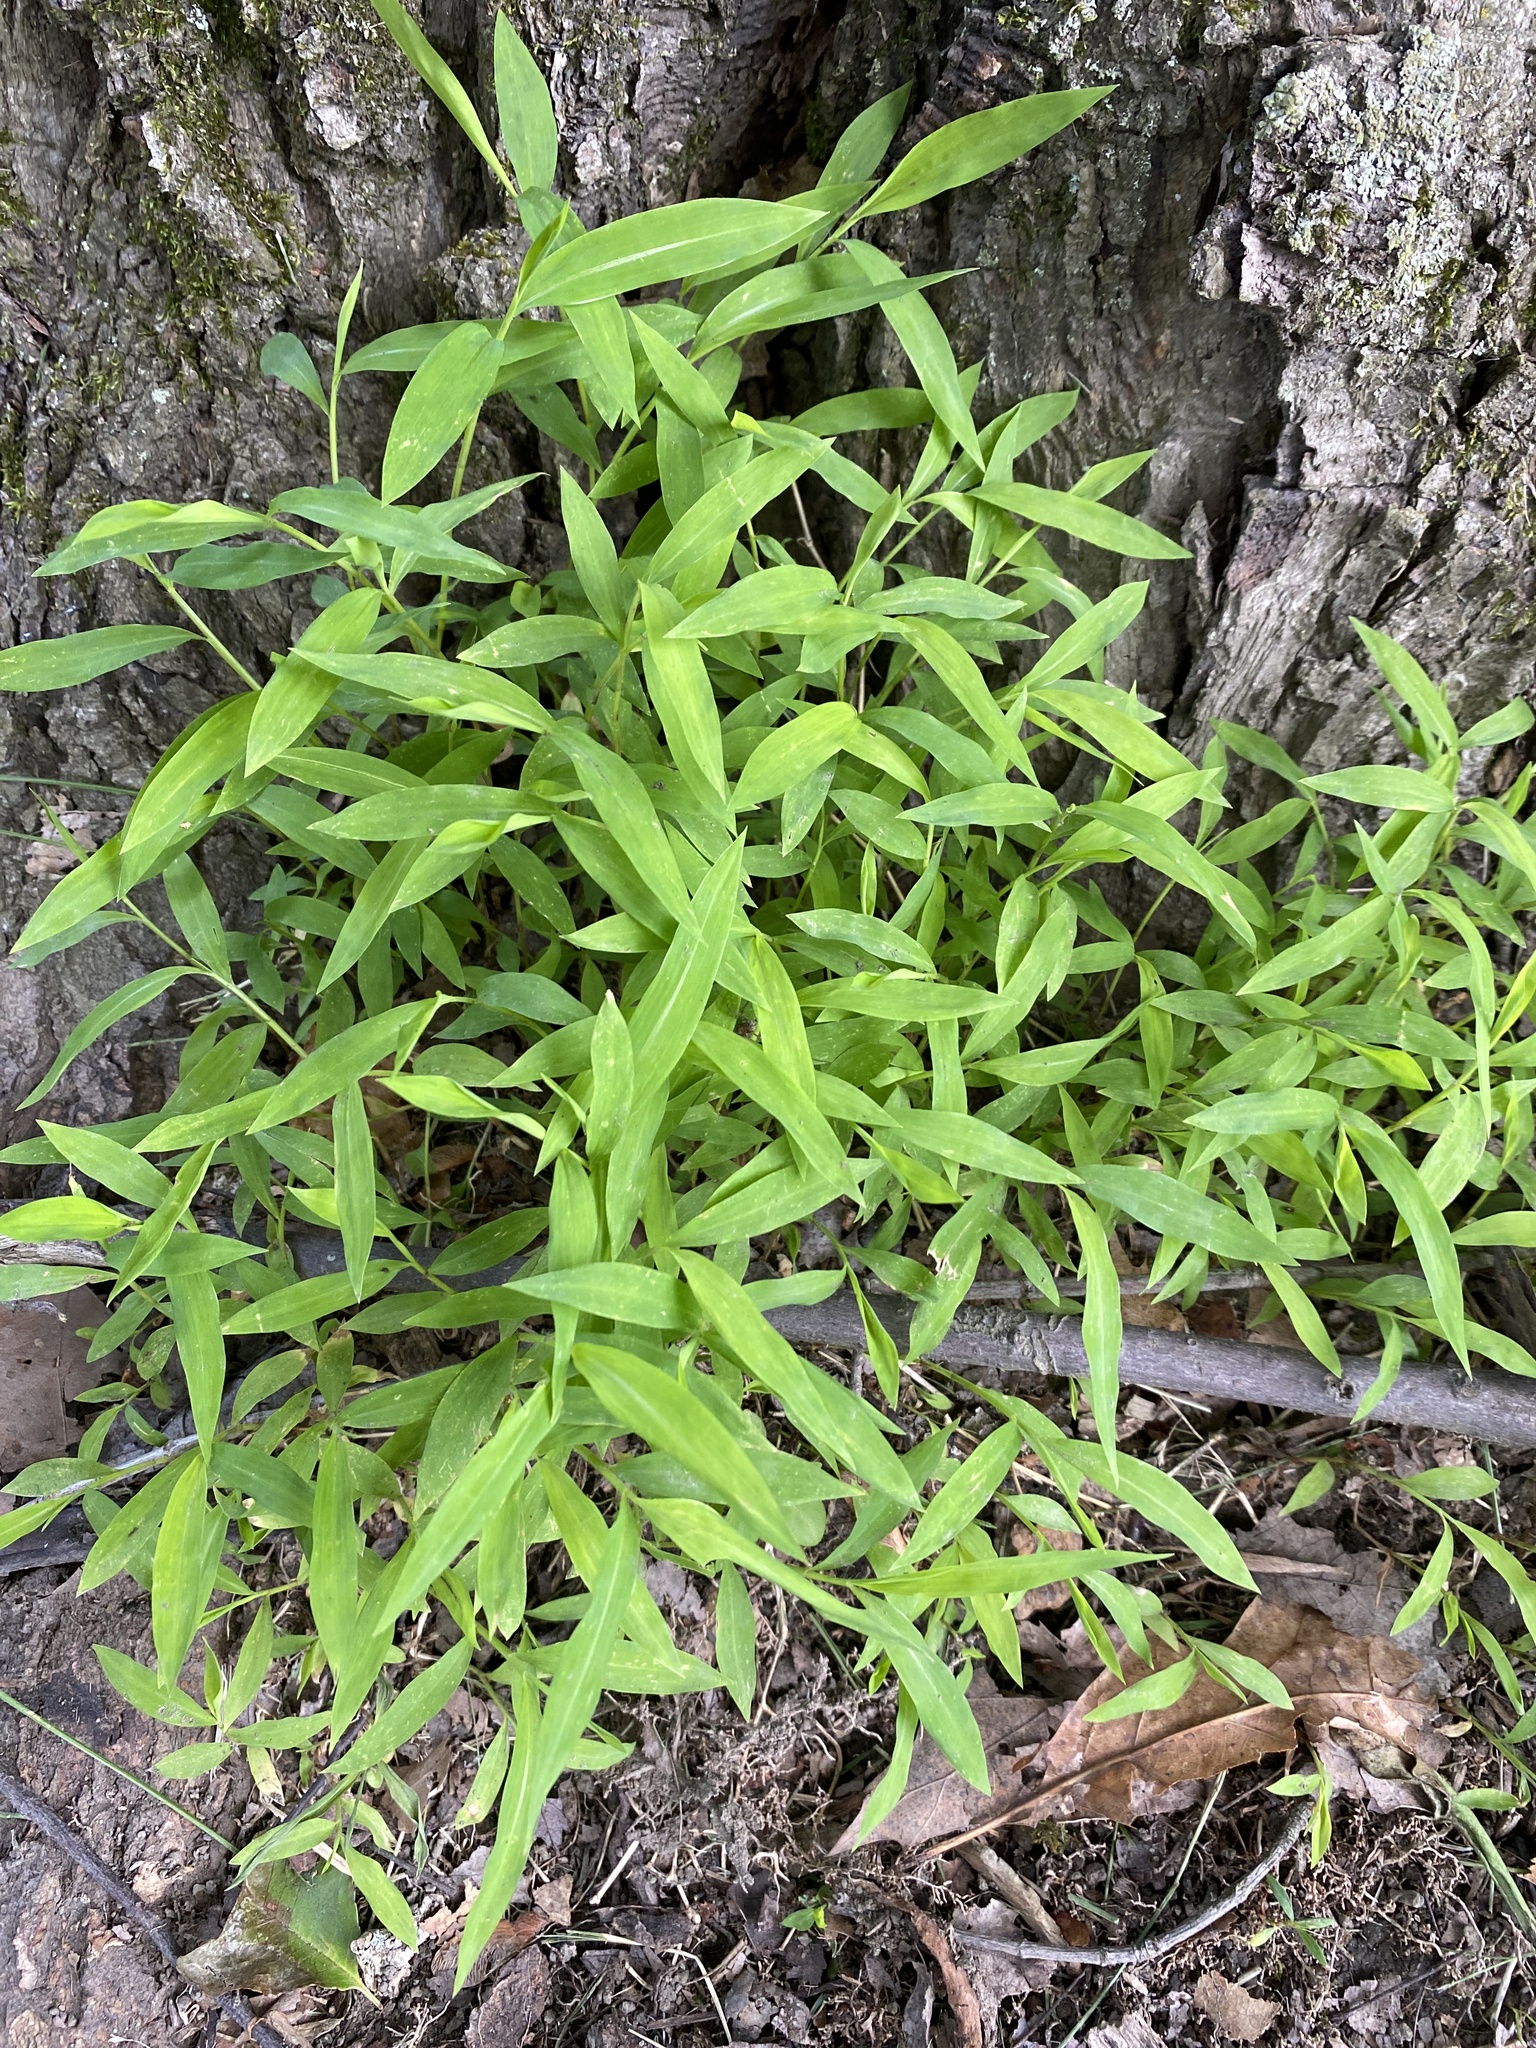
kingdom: Plantae
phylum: Tracheophyta
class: Liliopsida
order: Poales
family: Poaceae
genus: Microstegium
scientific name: Microstegium vimineum
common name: Japanese stiltgrass
